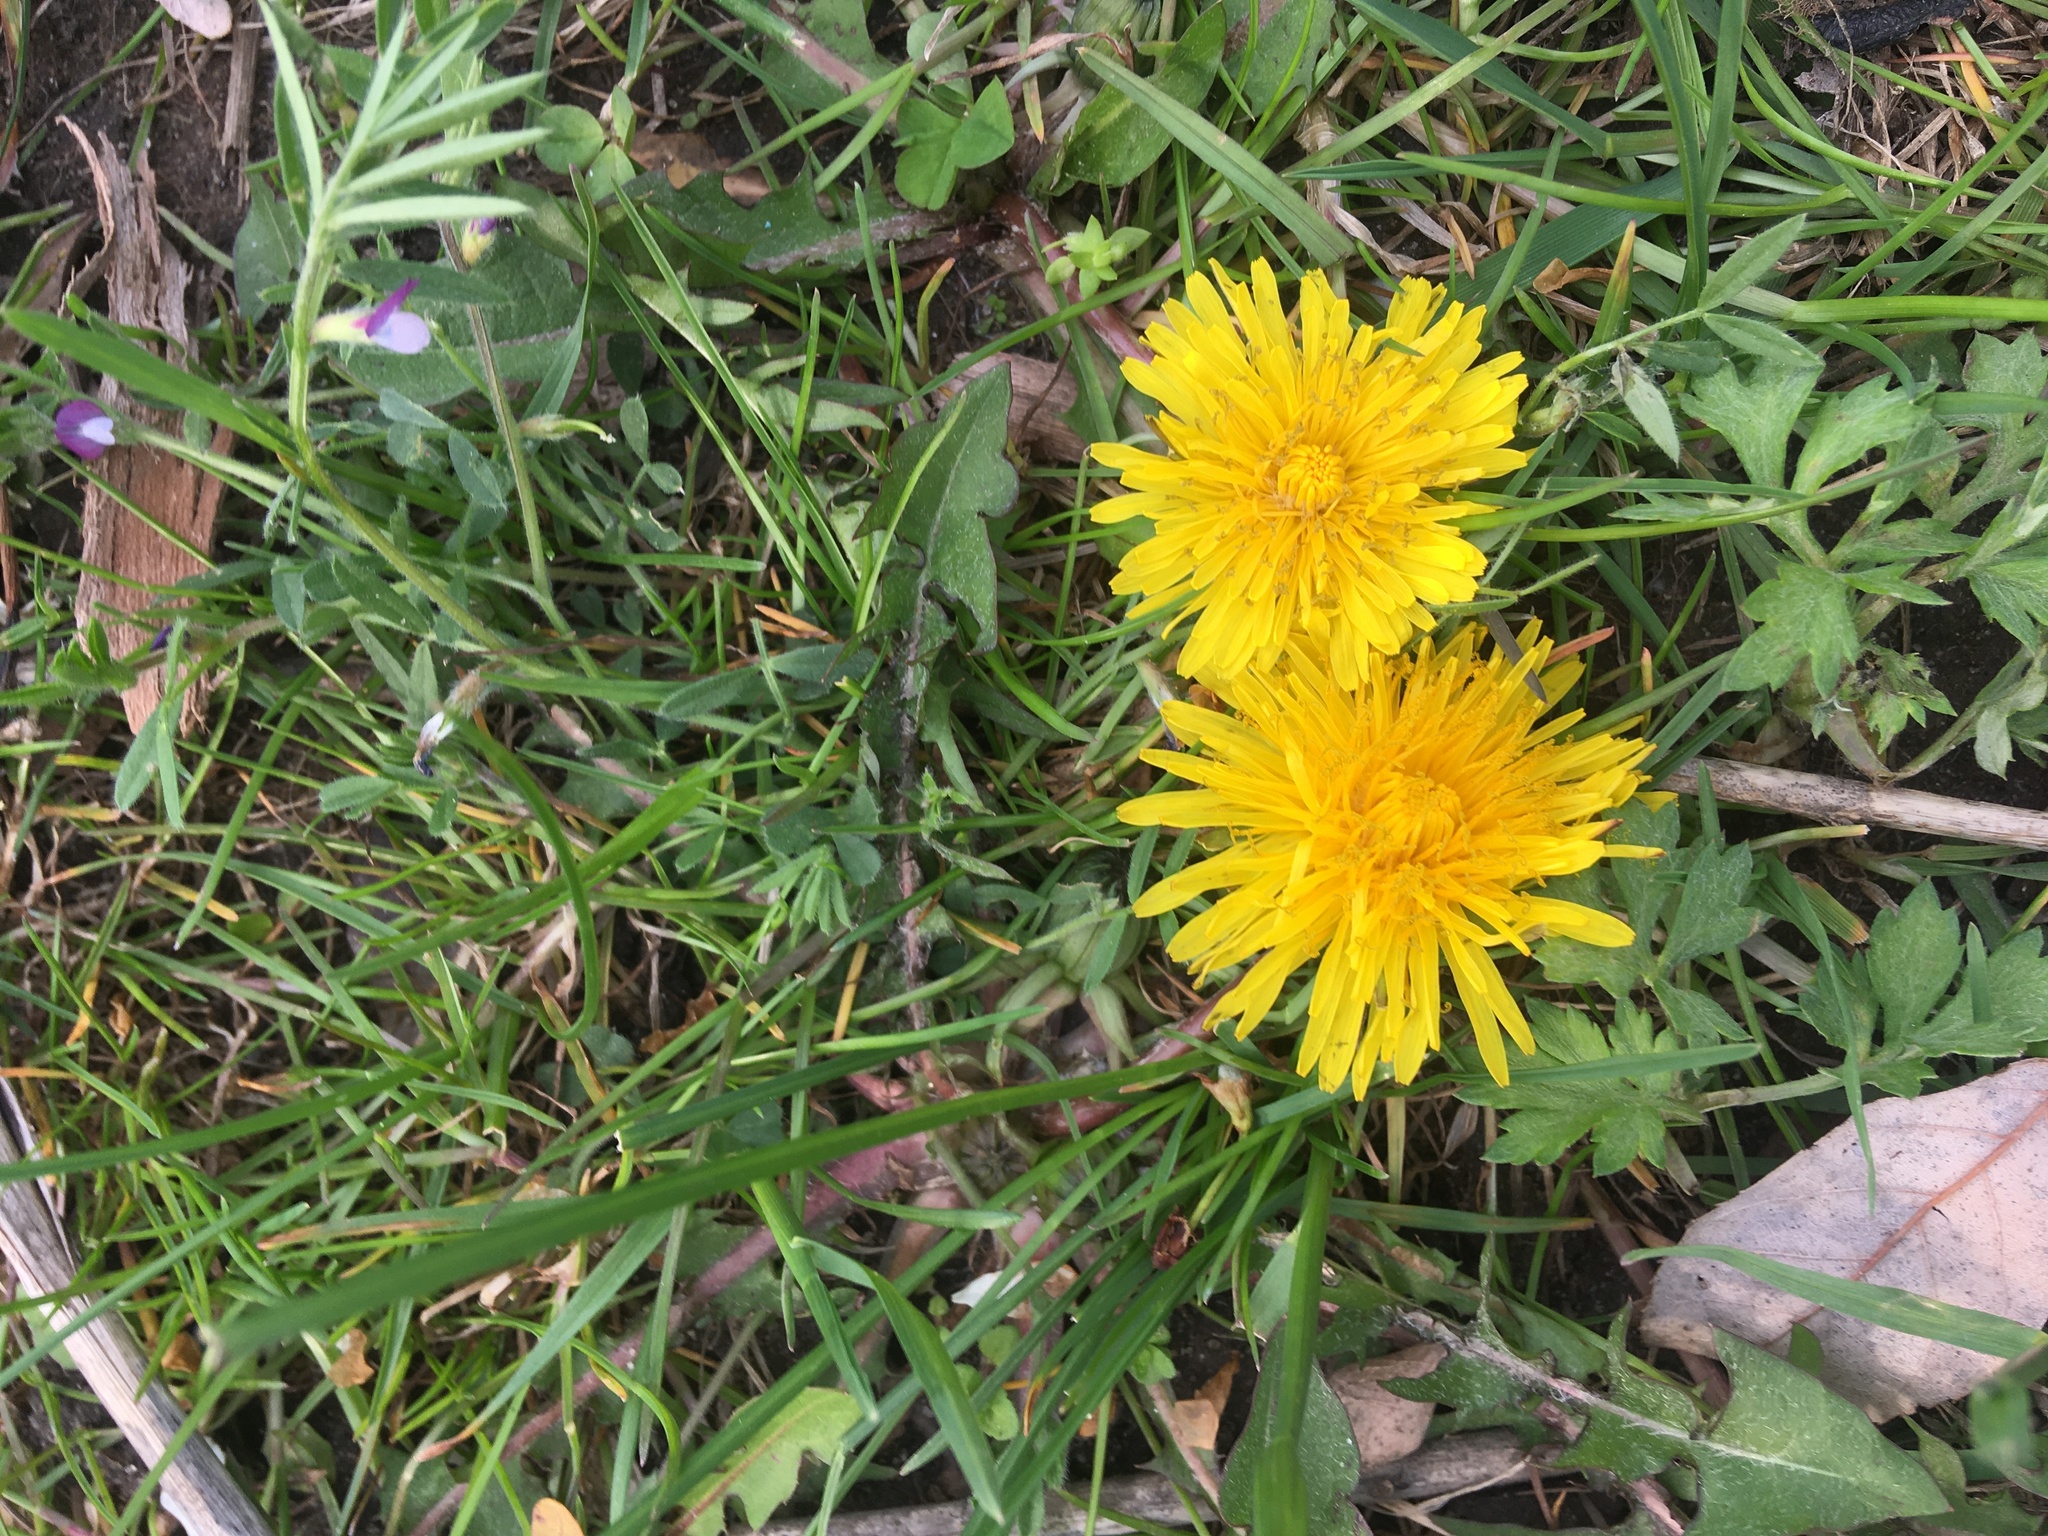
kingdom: Plantae
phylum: Tracheophyta
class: Magnoliopsida
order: Asterales
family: Asteraceae
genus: Taraxacum
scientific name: Taraxacum officinale
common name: Common dandelion
